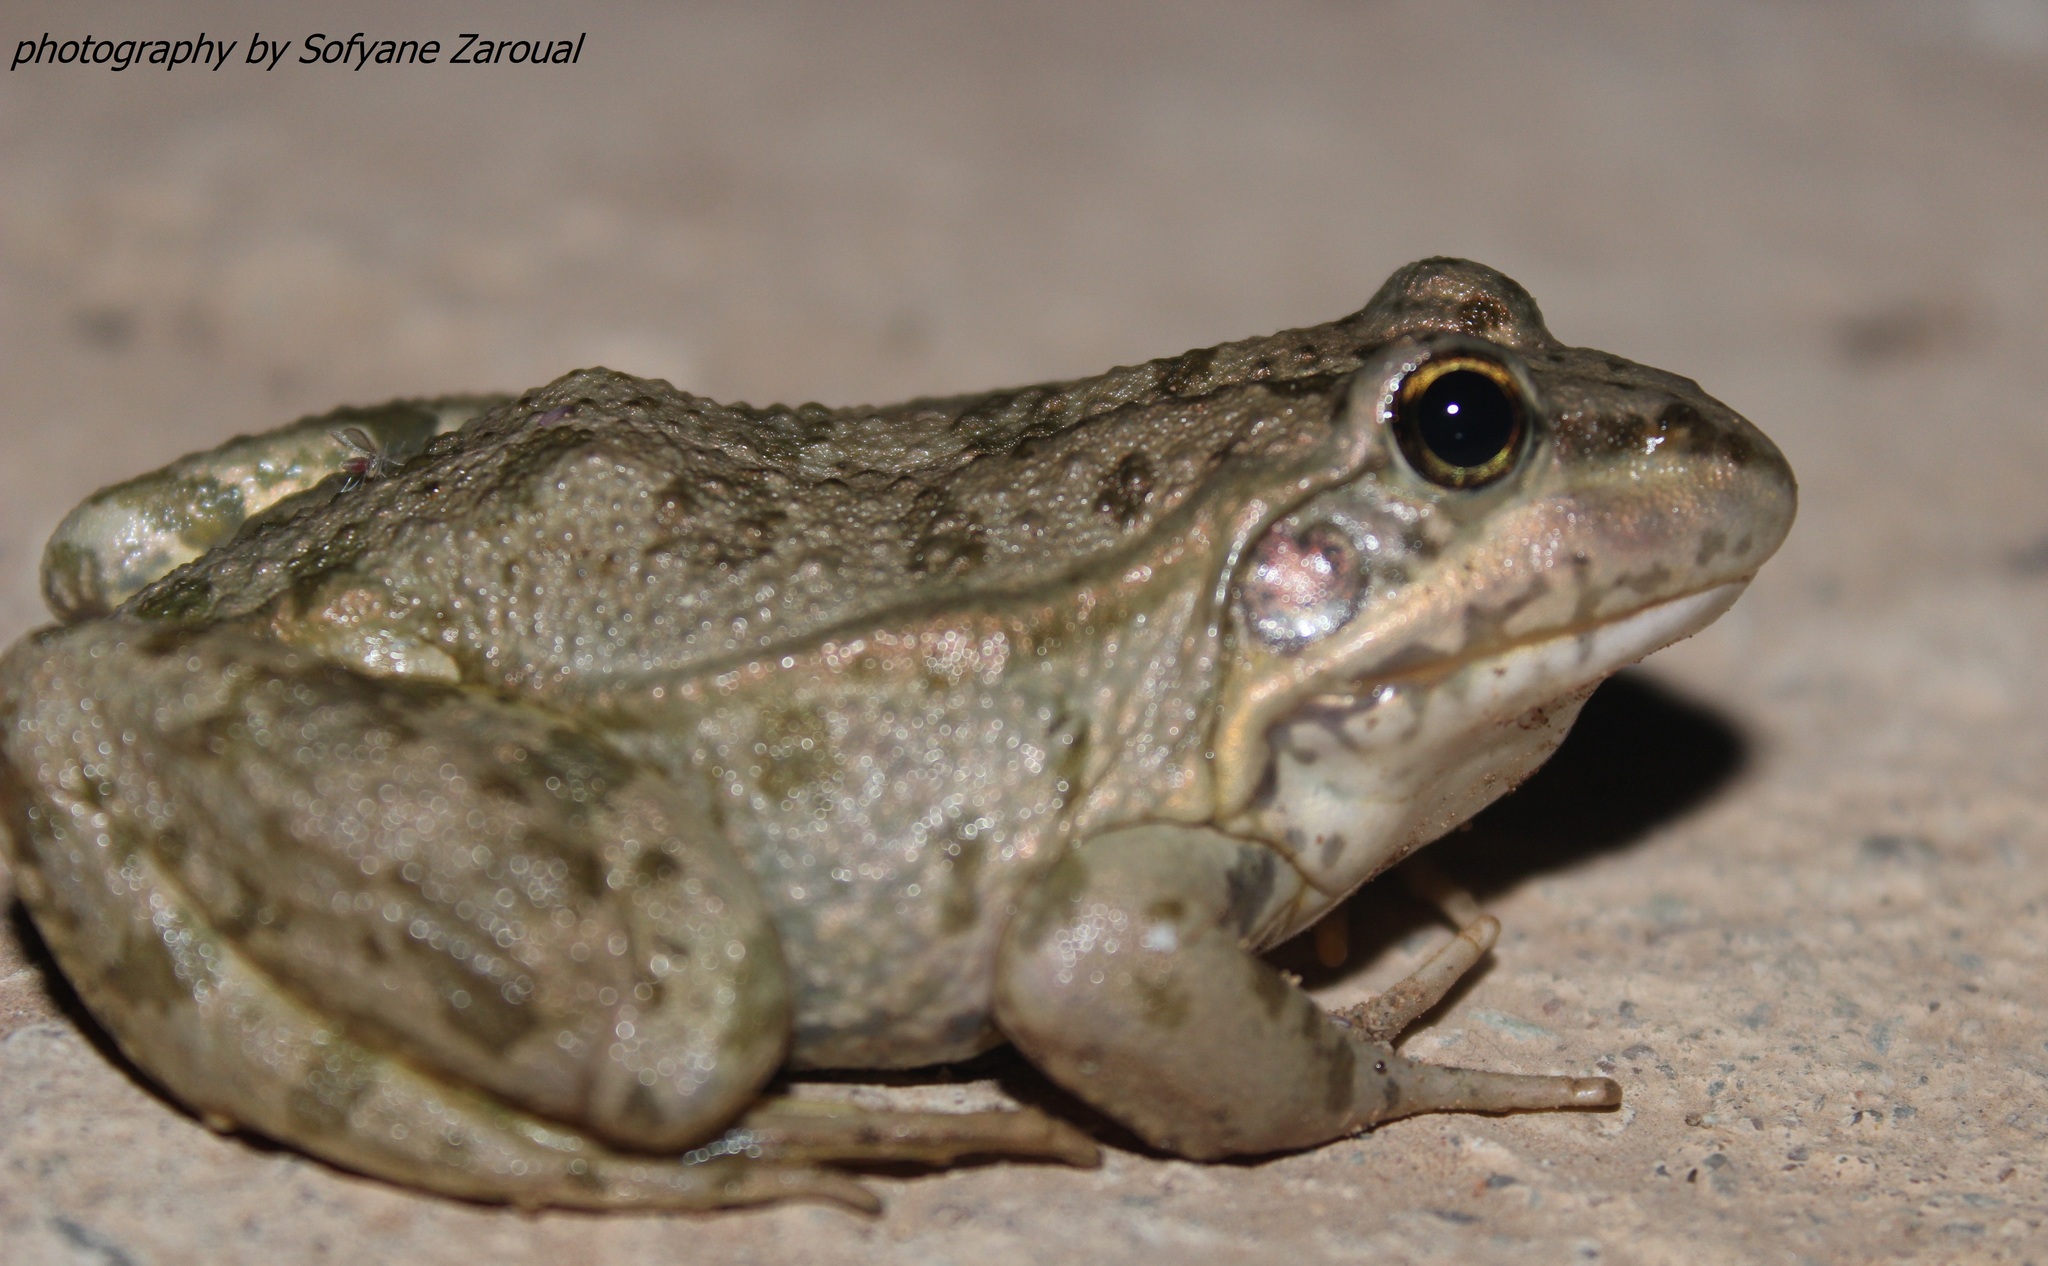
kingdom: Animalia
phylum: Chordata
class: Amphibia
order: Anura
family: Ranidae
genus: Pelophylax
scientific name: Pelophylax saharicus
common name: Sahara frog
